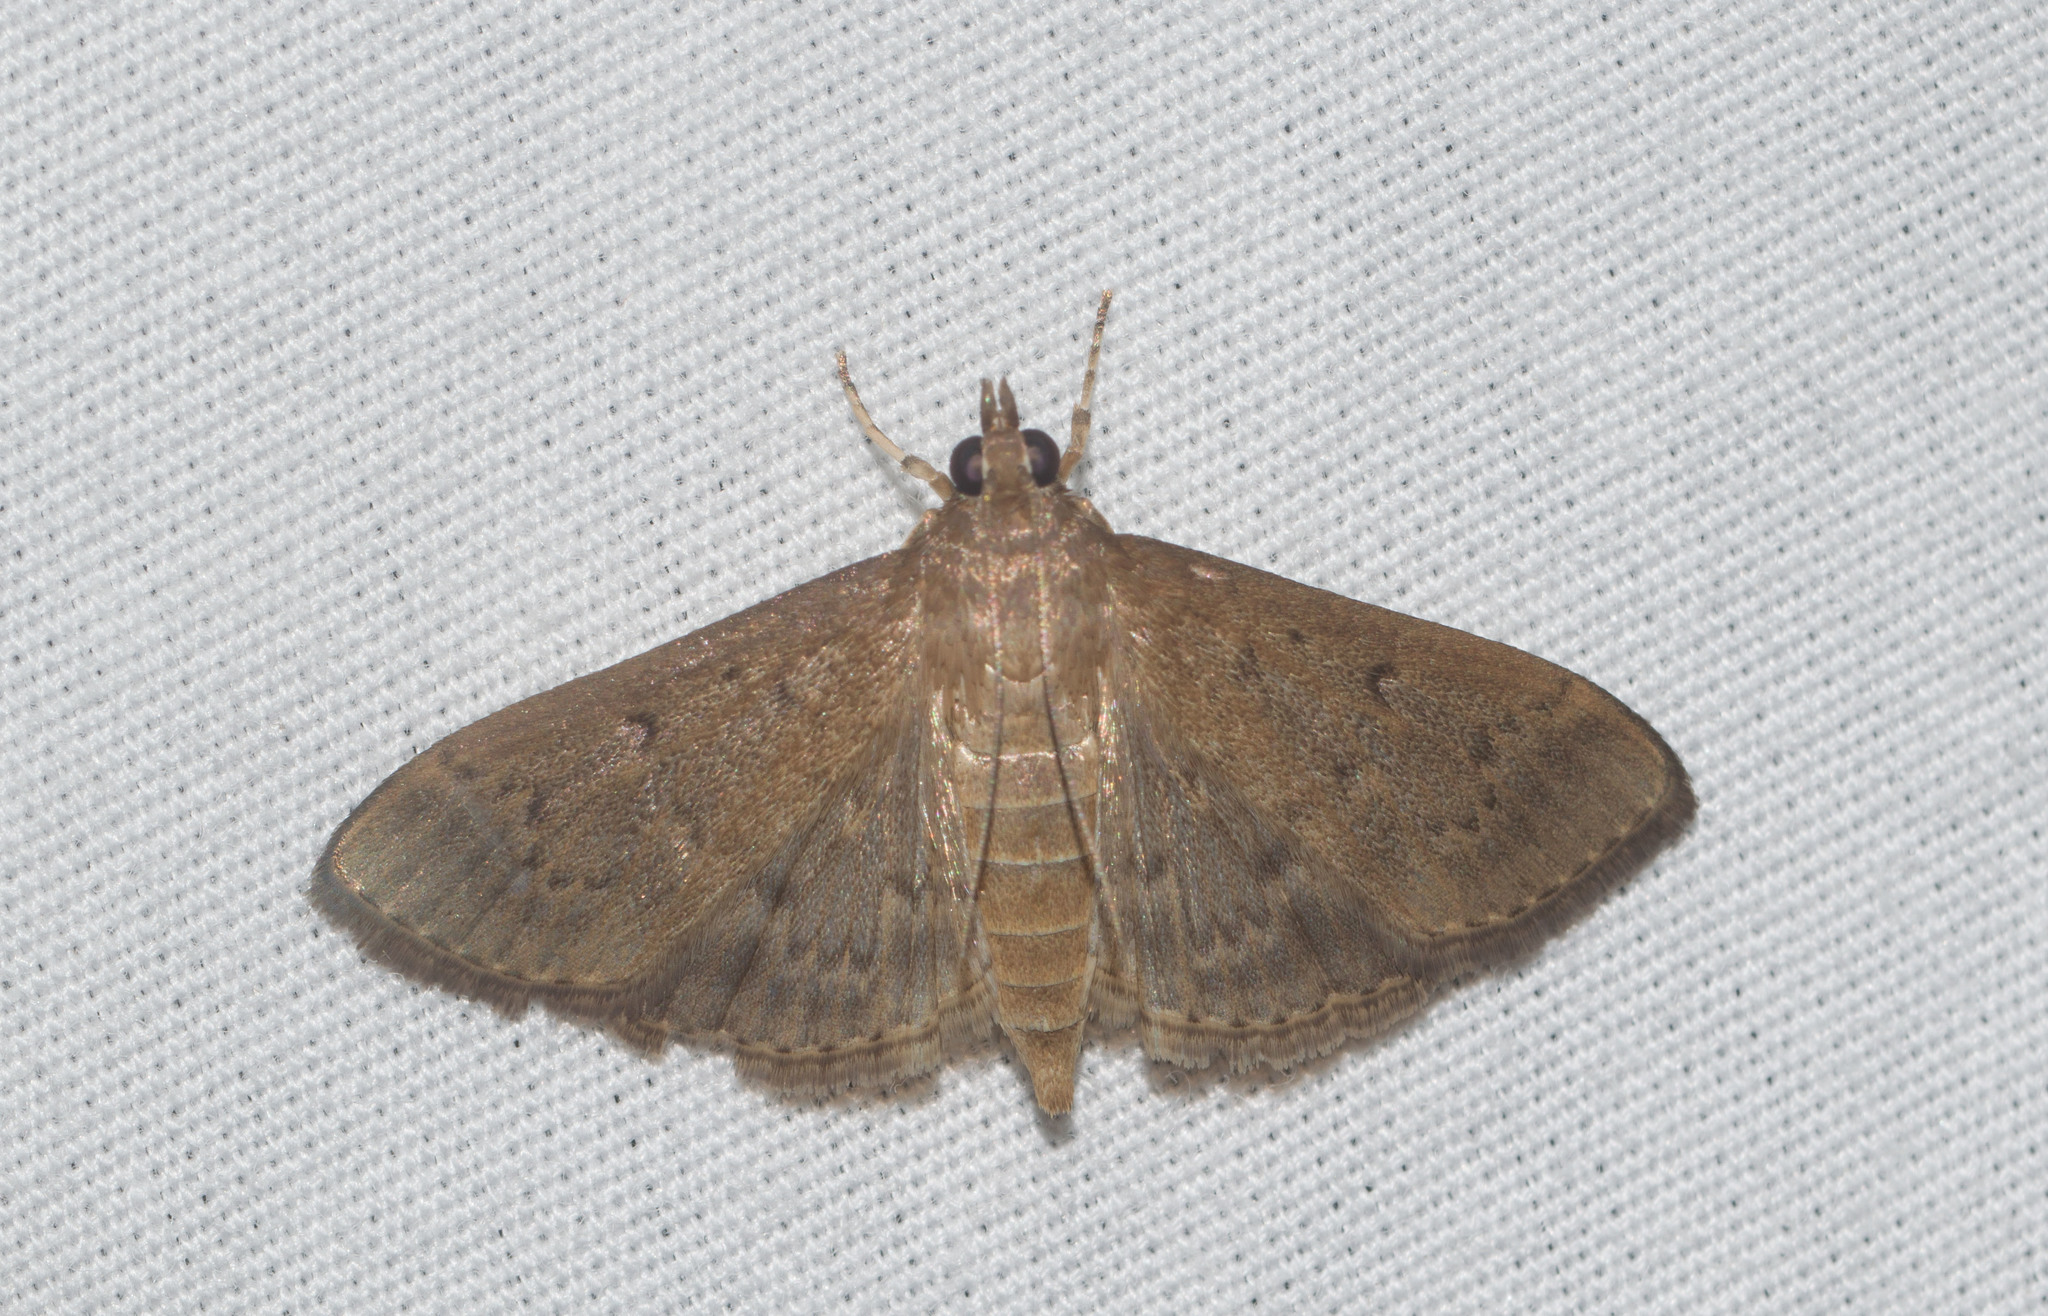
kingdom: Animalia
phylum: Arthropoda
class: Insecta
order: Lepidoptera
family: Crambidae
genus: Herpetogramma
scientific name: Herpetogramma licarsisalis
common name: Grass webworm
